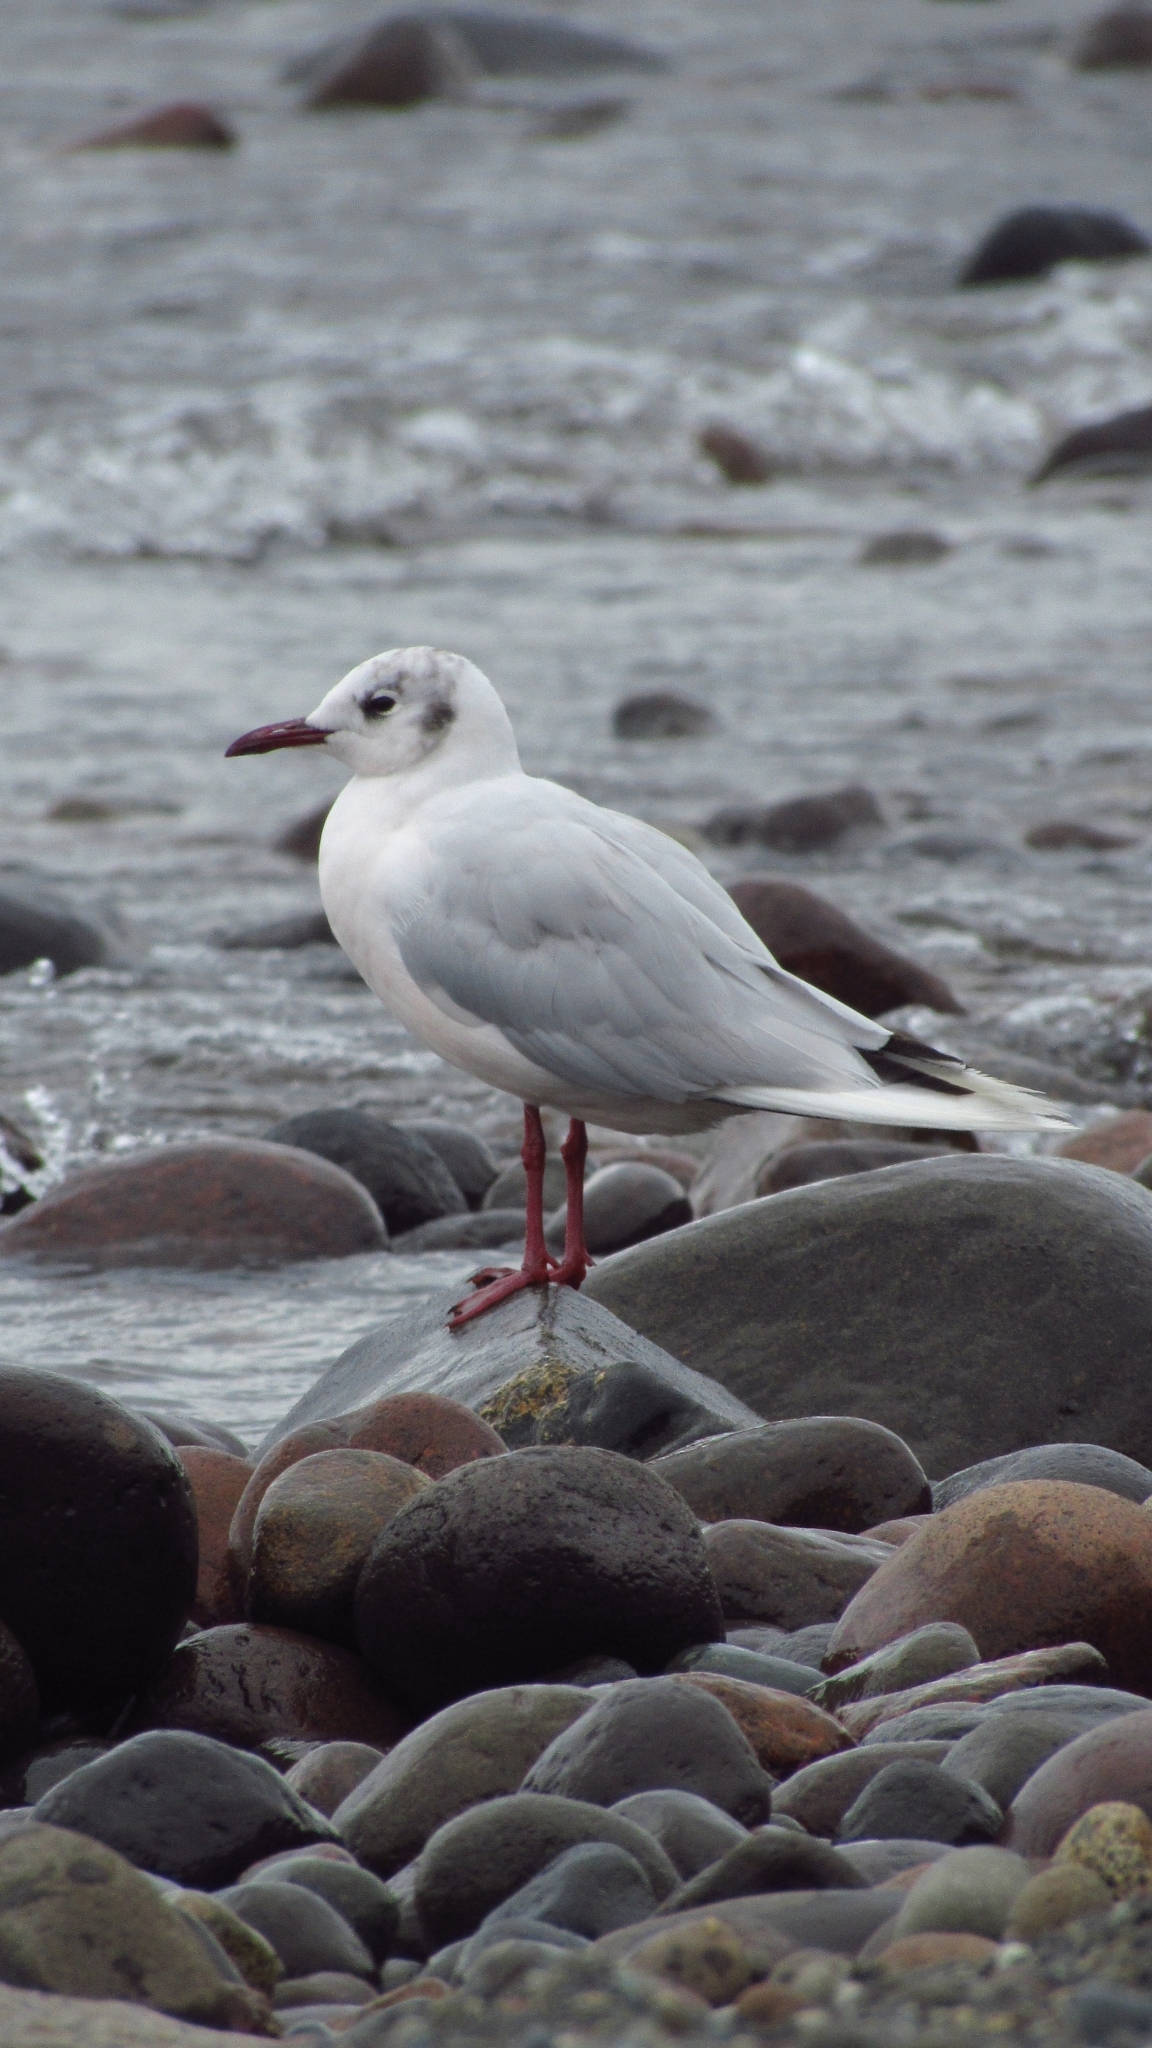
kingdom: Animalia
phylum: Chordata
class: Aves
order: Charadriiformes
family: Laridae
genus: Chroicocephalus
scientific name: Chroicocephalus maculipennis
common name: Brown-hooded gull
